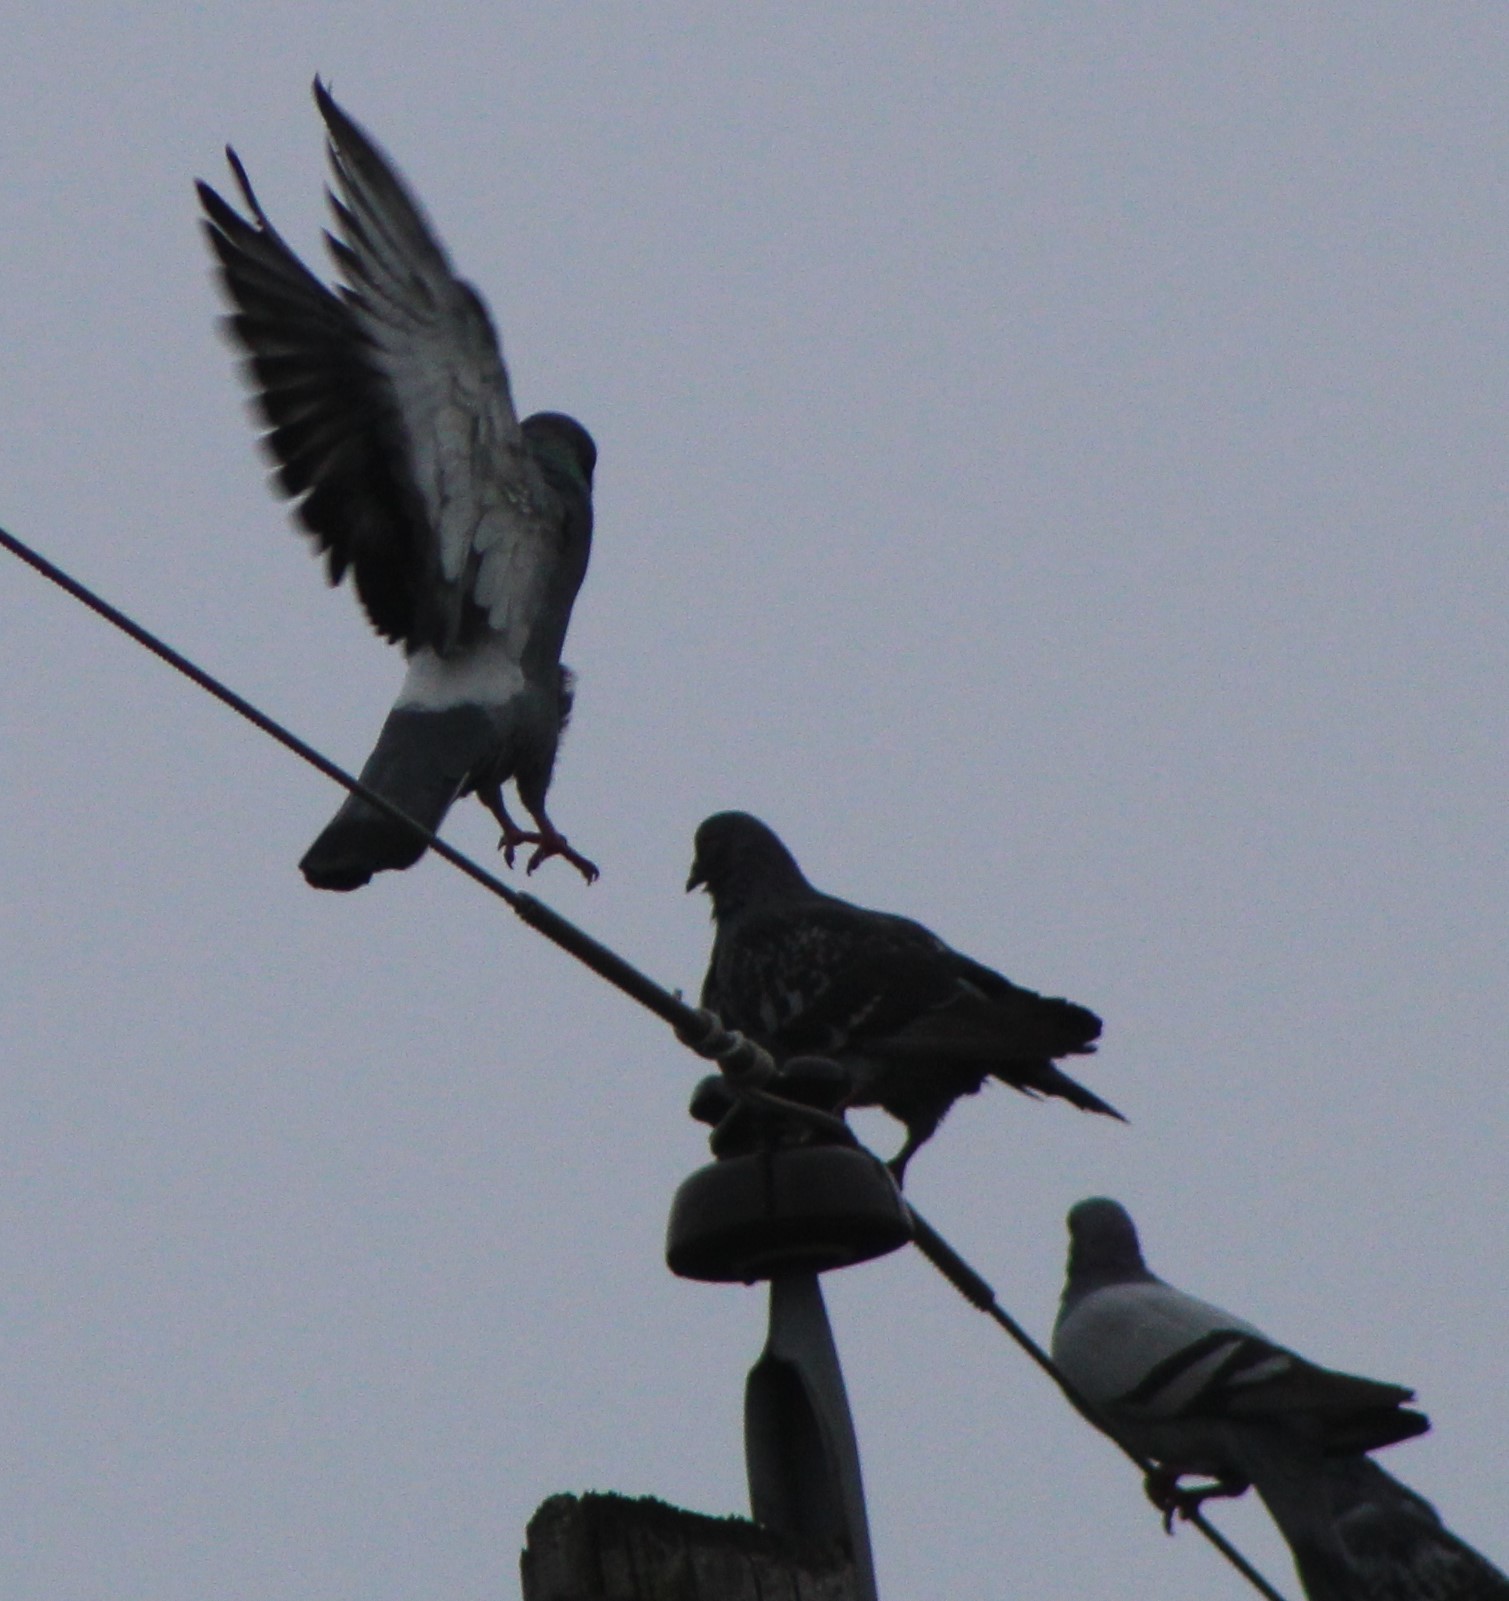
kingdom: Animalia
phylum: Chordata
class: Aves
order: Columbiformes
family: Columbidae
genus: Columba
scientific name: Columba livia
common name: Rock pigeon
